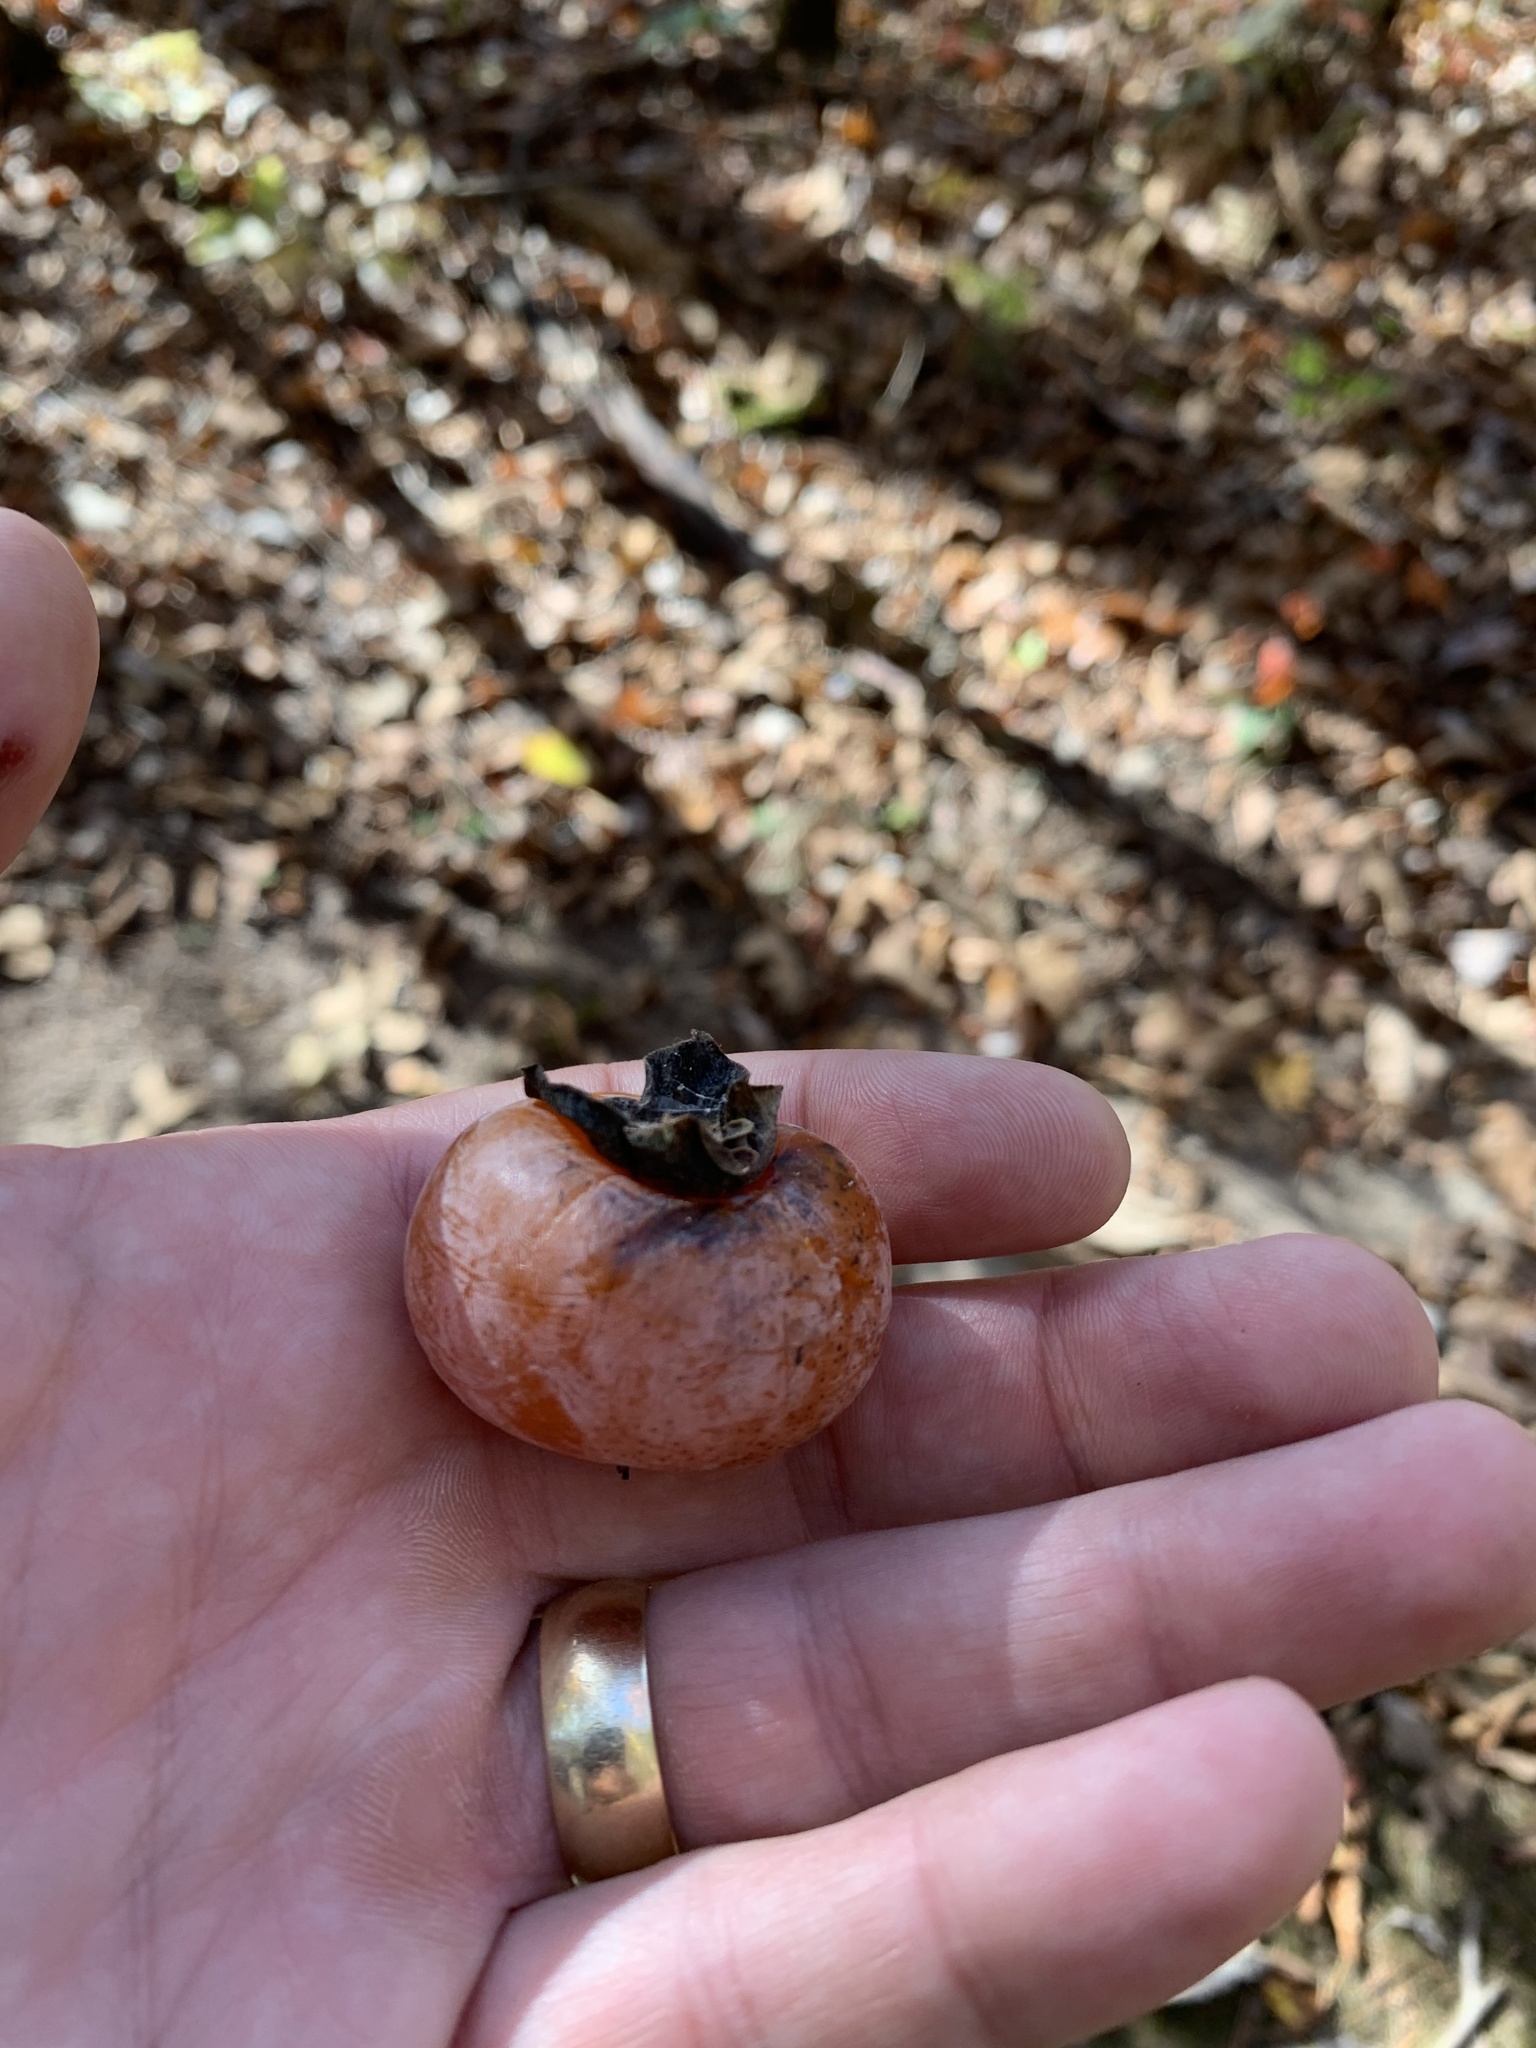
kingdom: Plantae
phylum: Tracheophyta
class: Magnoliopsida
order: Ericales
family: Ebenaceae
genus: Diospyros
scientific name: Diospyros virginiana
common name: Persimmon
